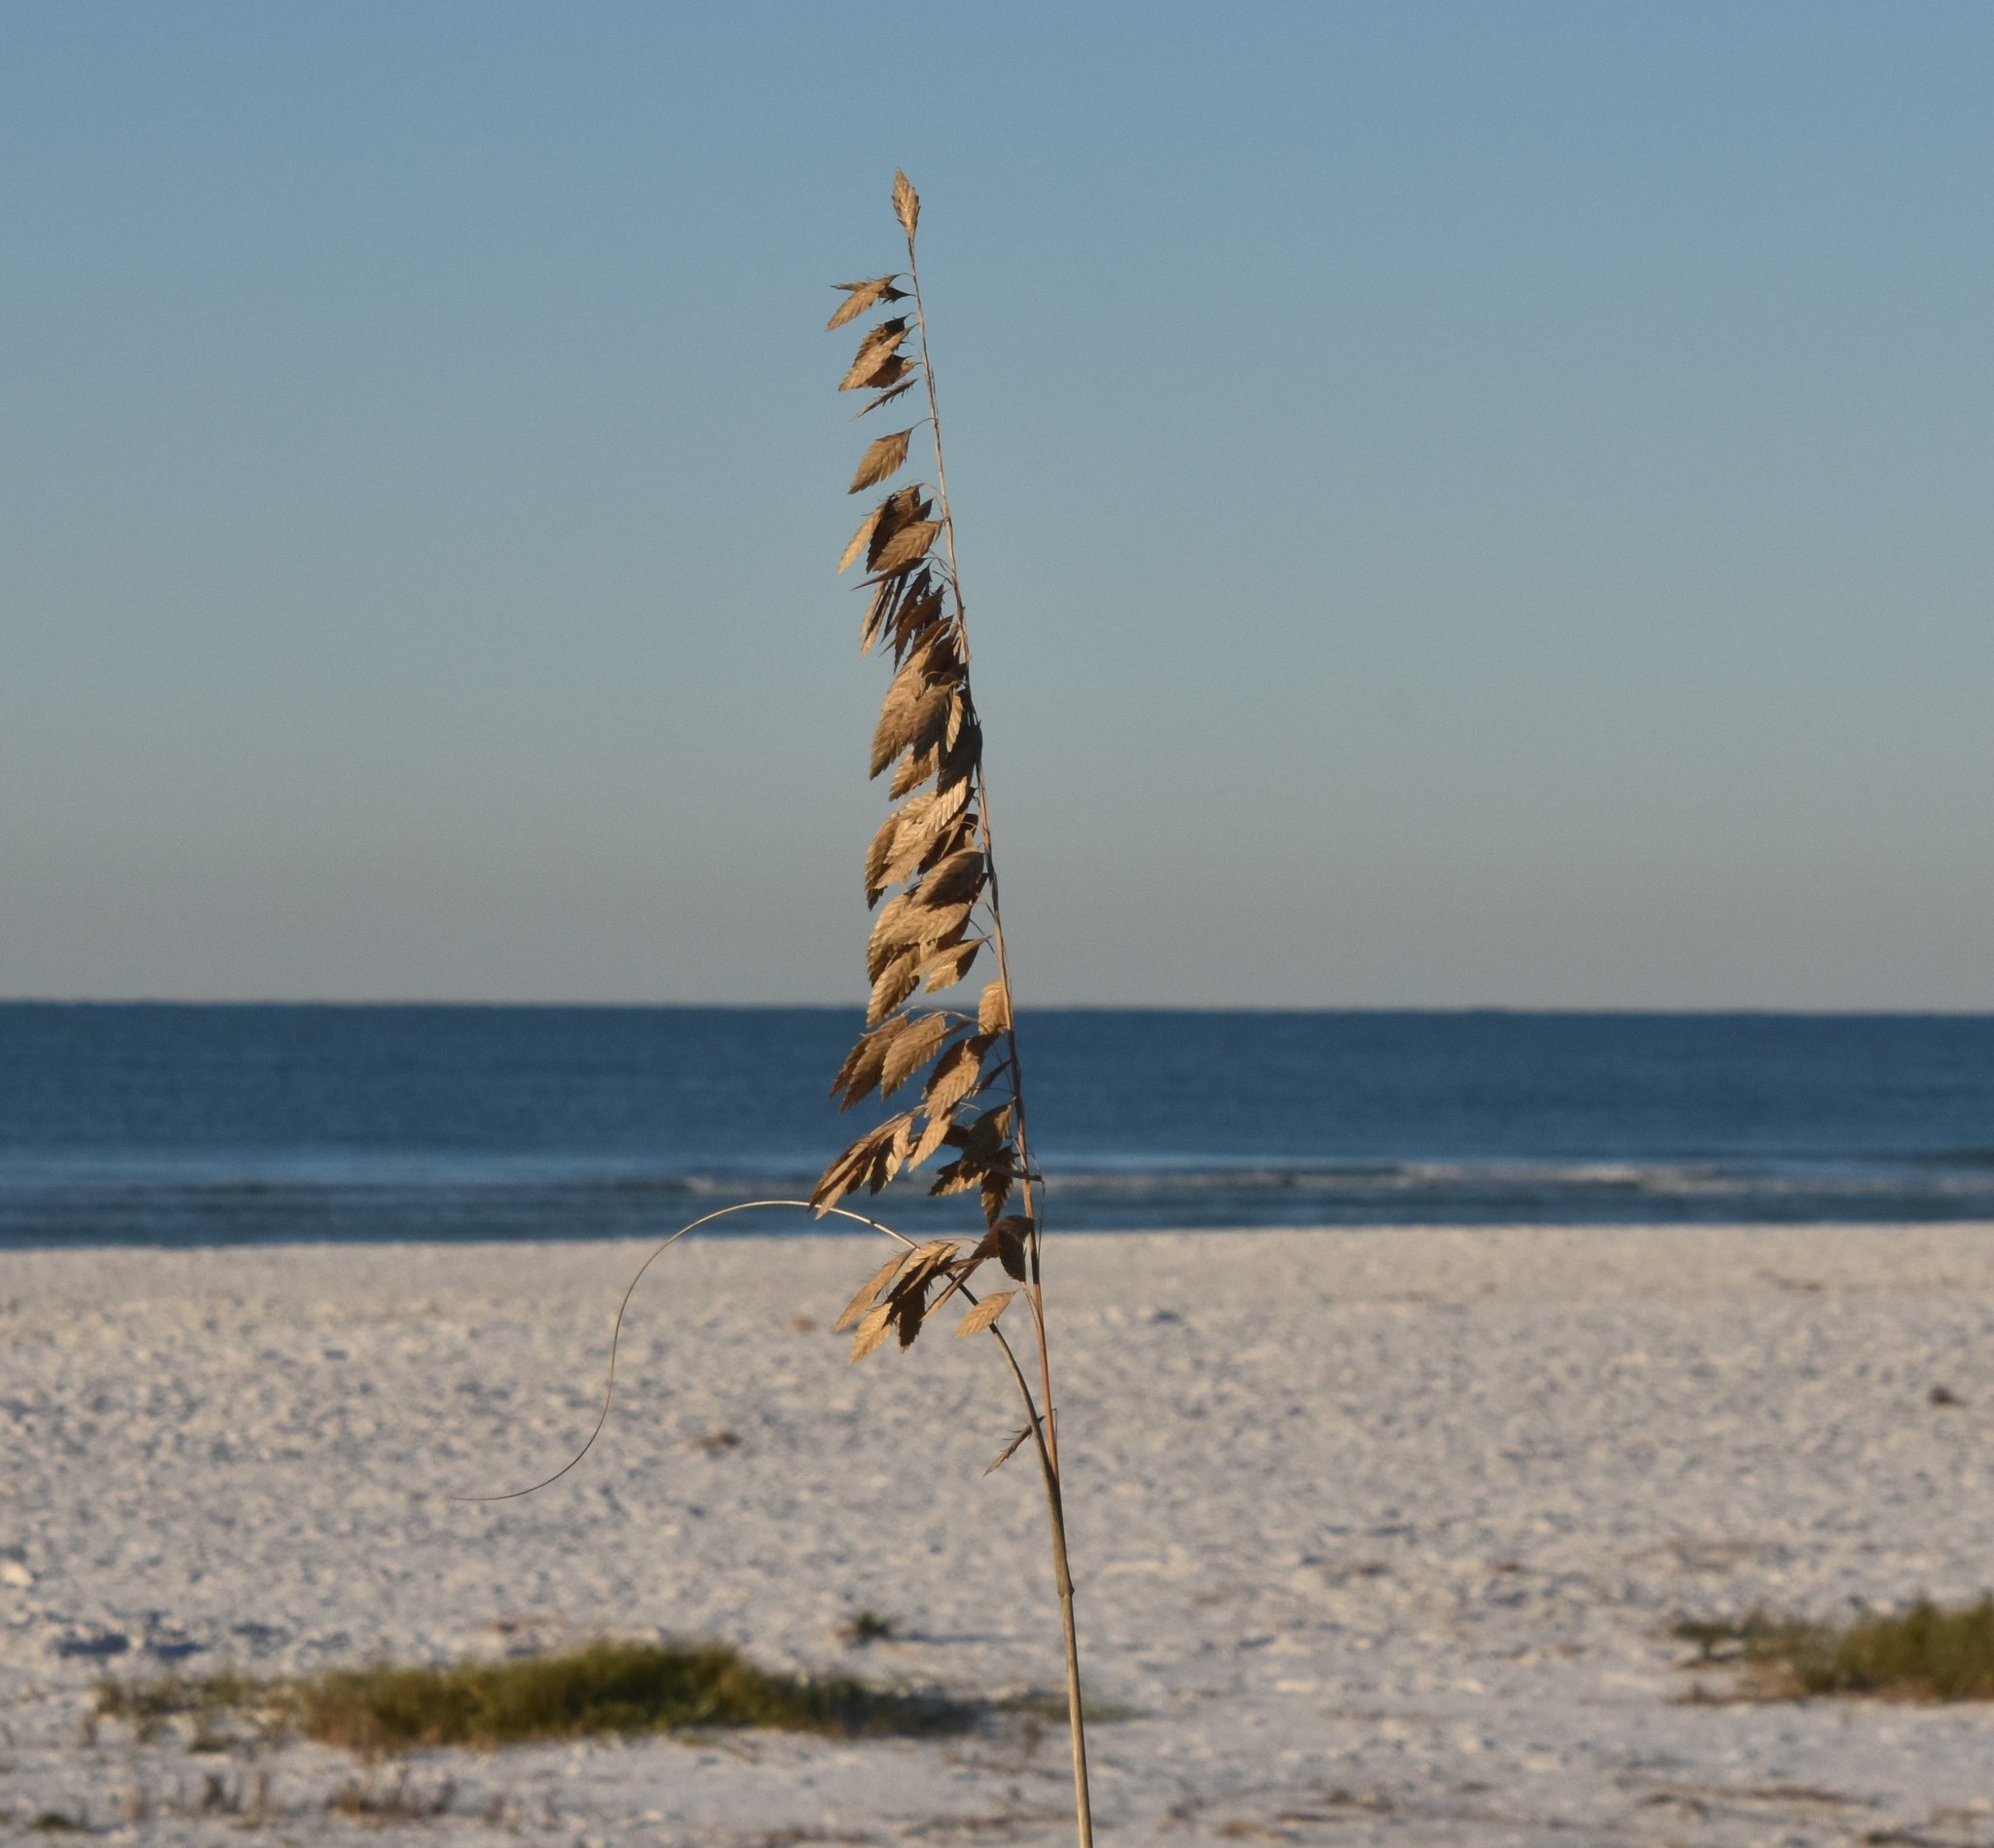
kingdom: Plantae
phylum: Tracheophyta
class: Liliopsida
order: Poales
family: Poaceae
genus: Uniola
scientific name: Uniola paniculata
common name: Seaside-oats
